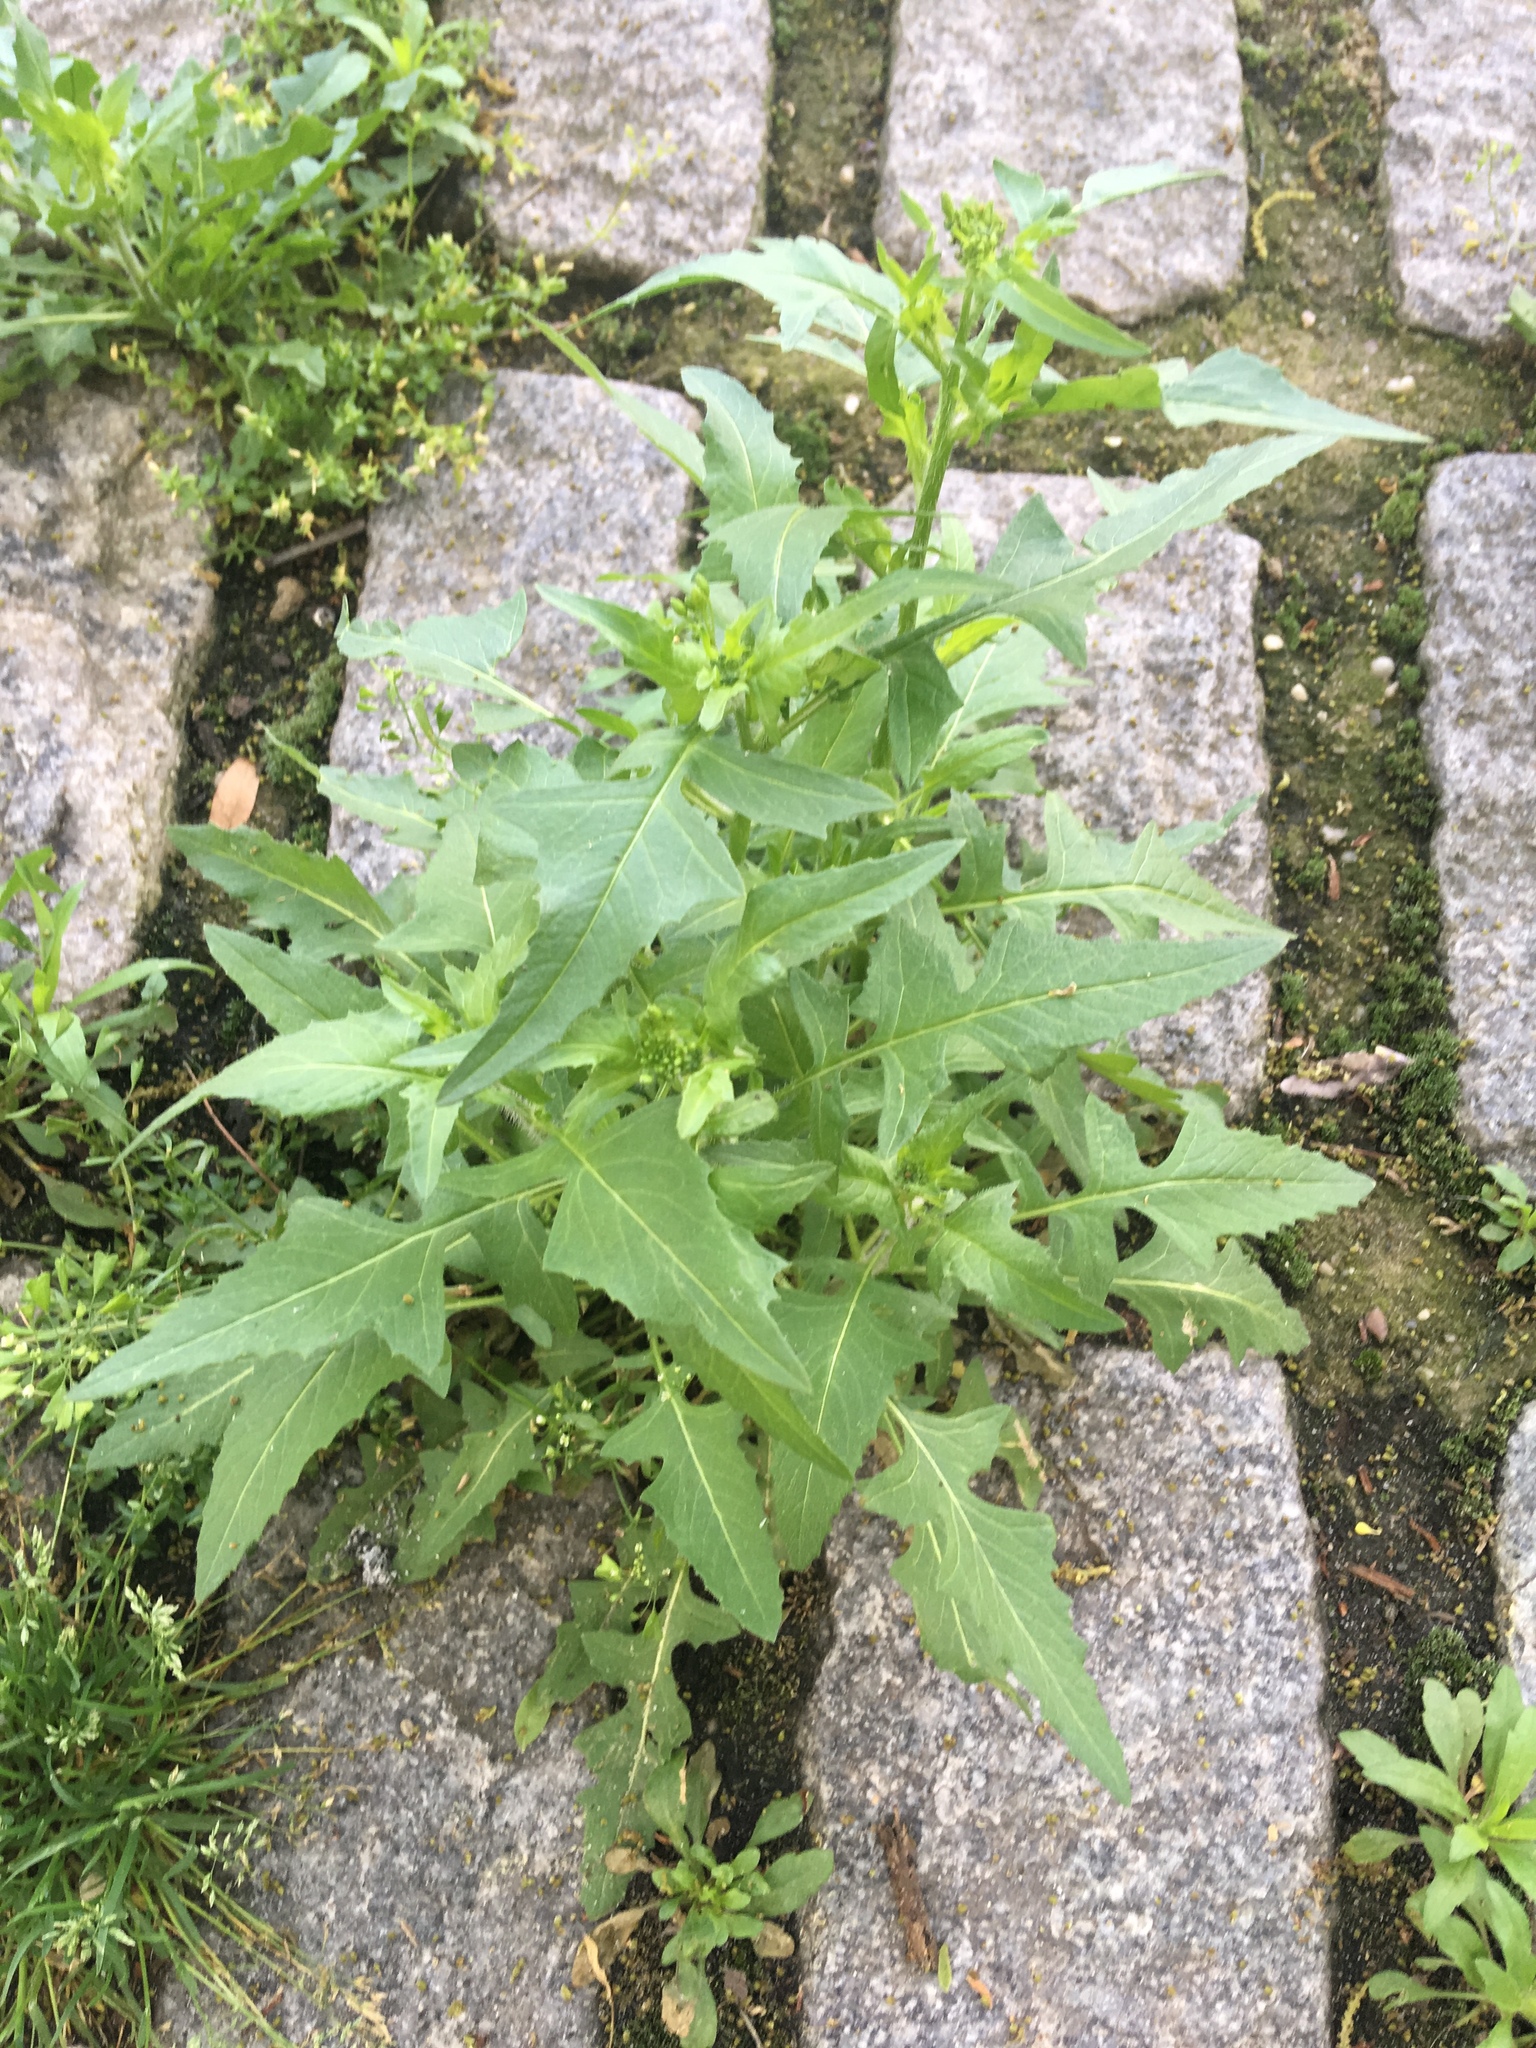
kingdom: Plantae
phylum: Tracheophyta
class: Magnoliopsida
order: Brassicales
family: Brassicaceae
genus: Sisymbrium
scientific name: Sisymbrium loeselii
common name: False london-rocket
